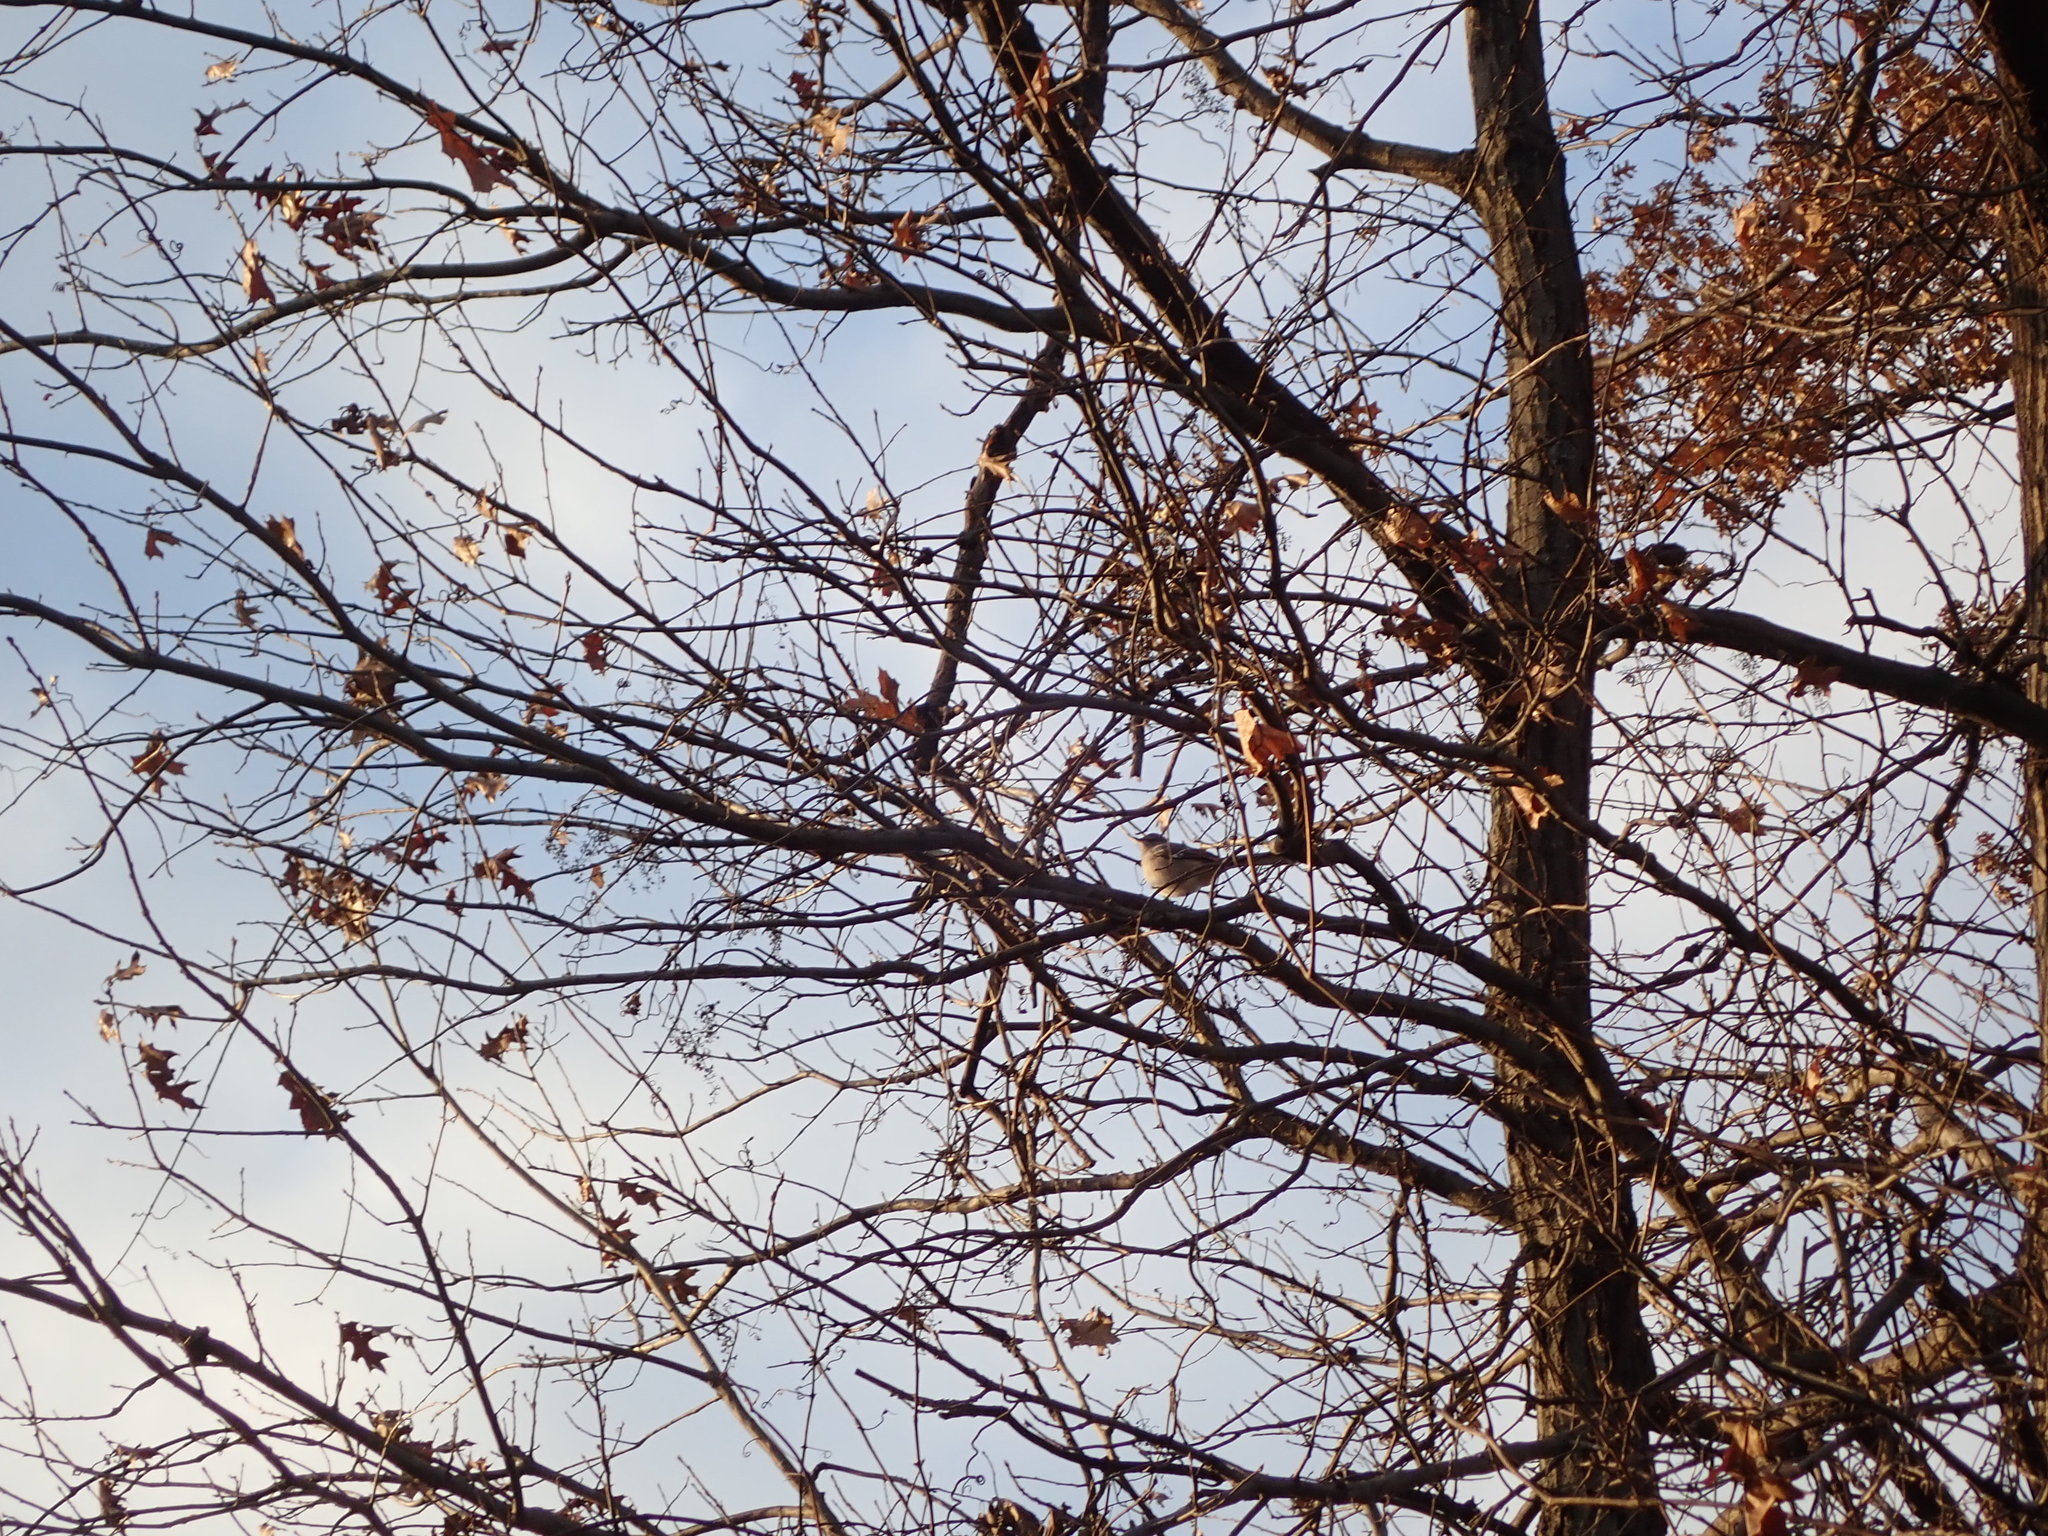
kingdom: Animalia
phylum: Chordata
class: Aves
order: Passeriformes
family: Mimidae
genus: Mimus
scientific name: Mimus polyglottos
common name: Northern mockingbird
